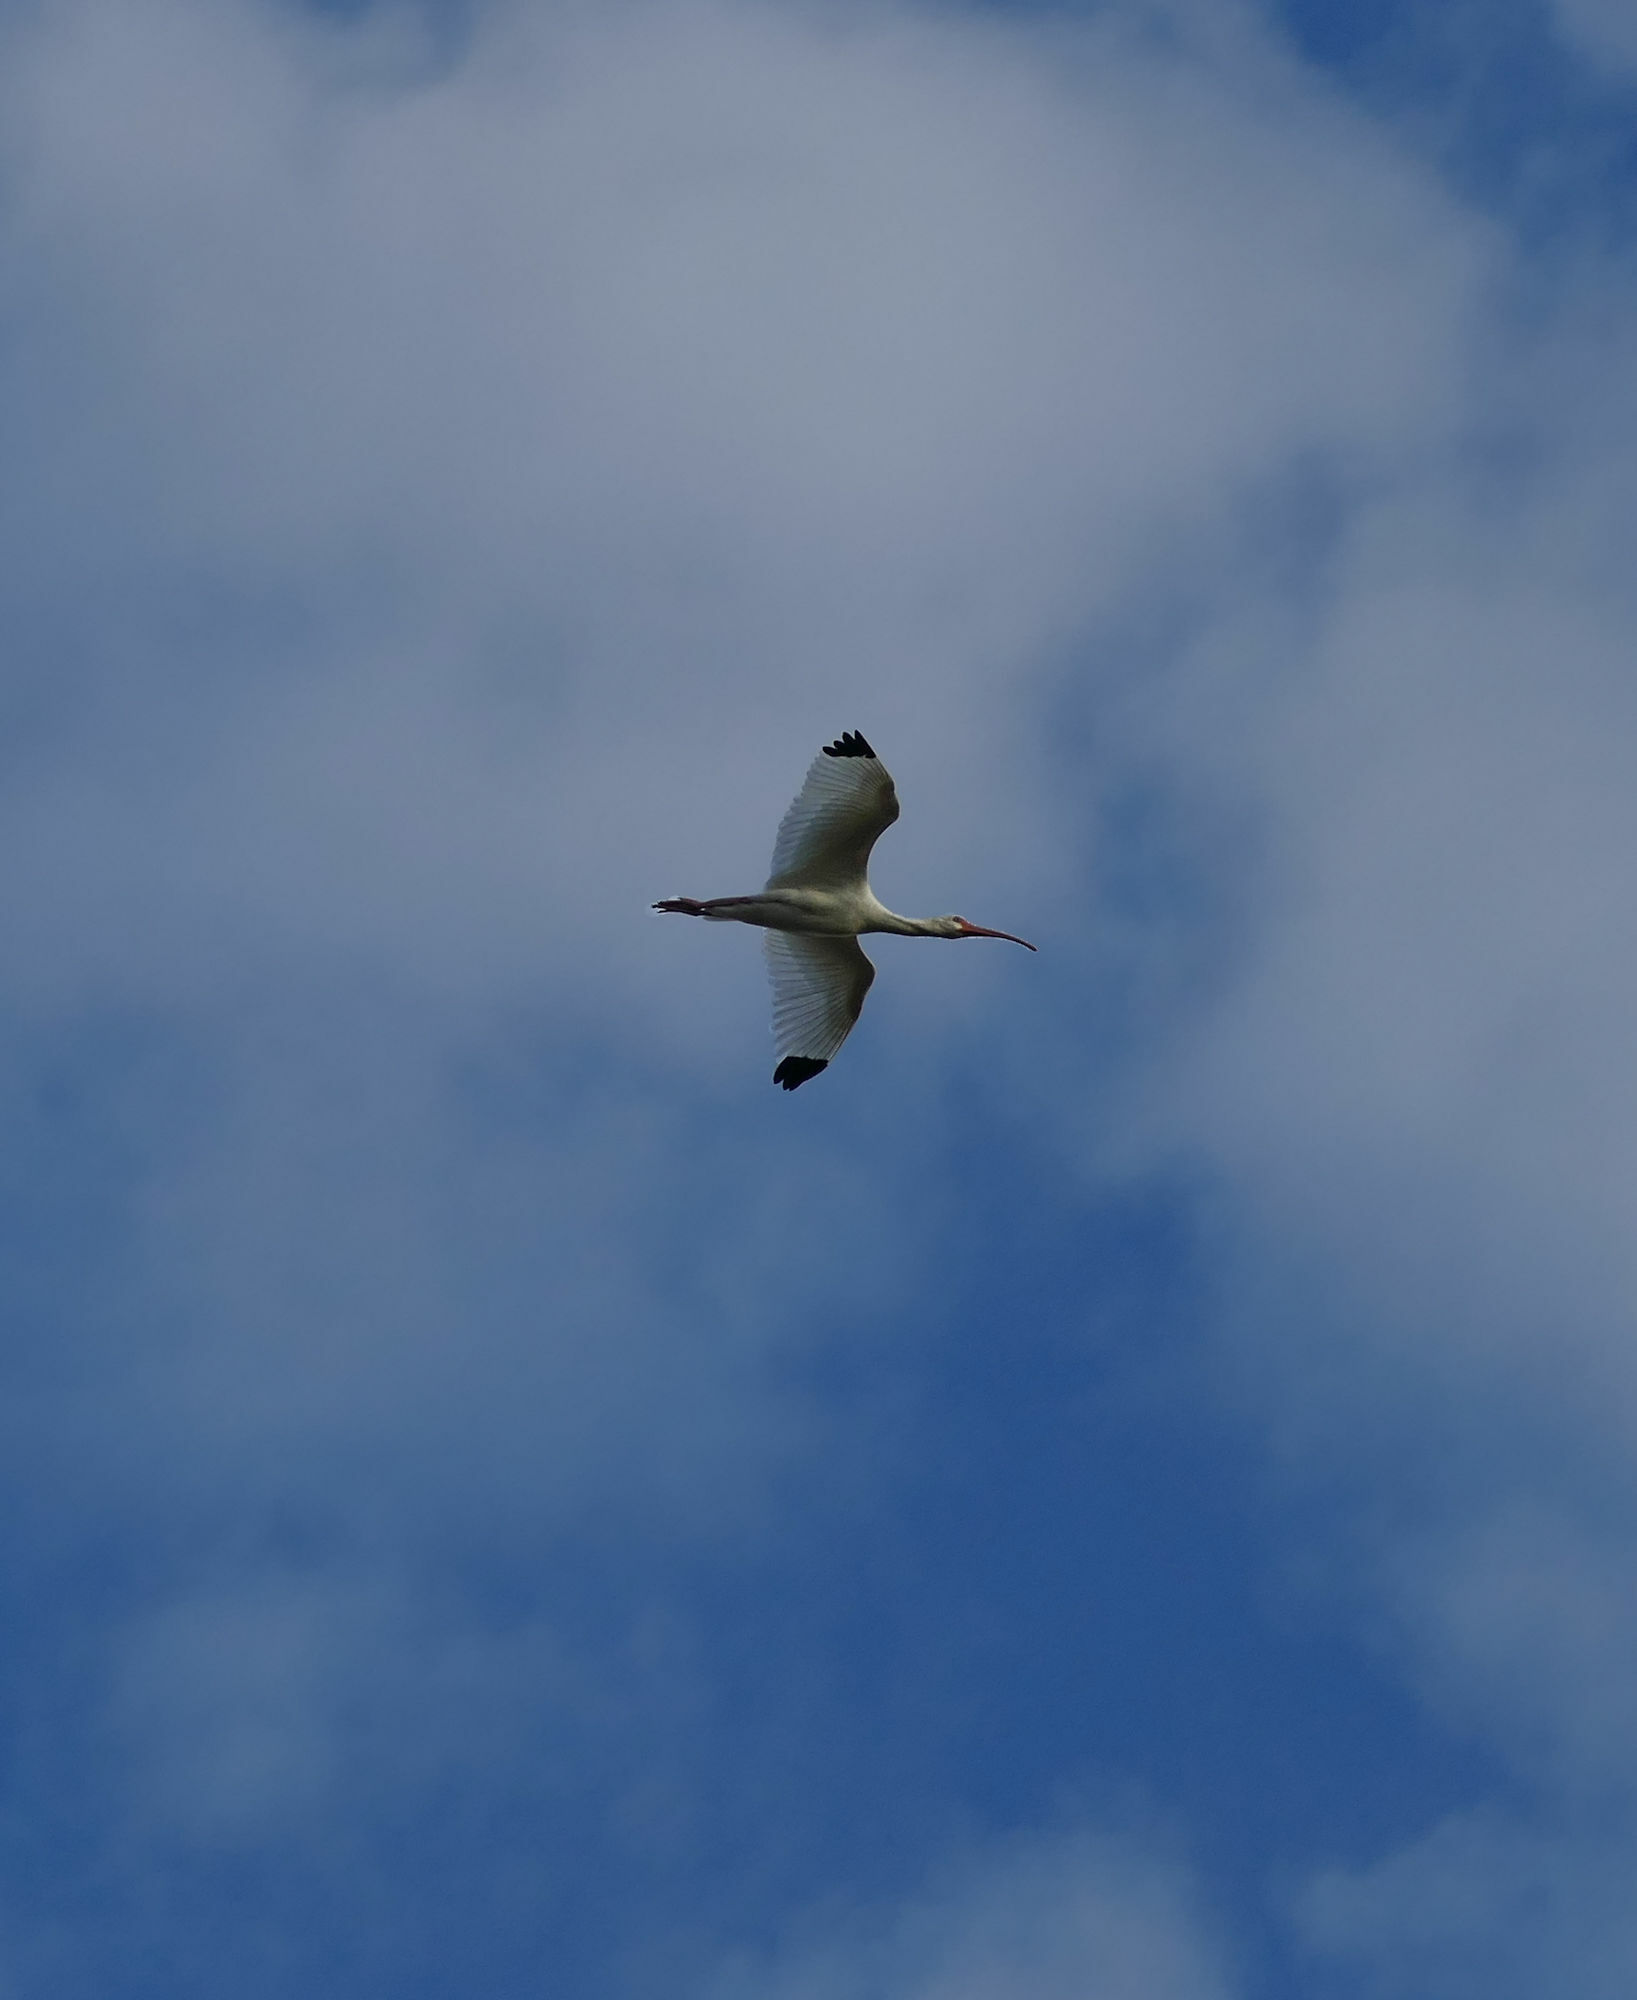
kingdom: Animalia
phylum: Chordata
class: Aves
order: Pelecaniformes
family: Threskiornithidae
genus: Eudocimus
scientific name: Eudocimus albus
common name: White ibis
